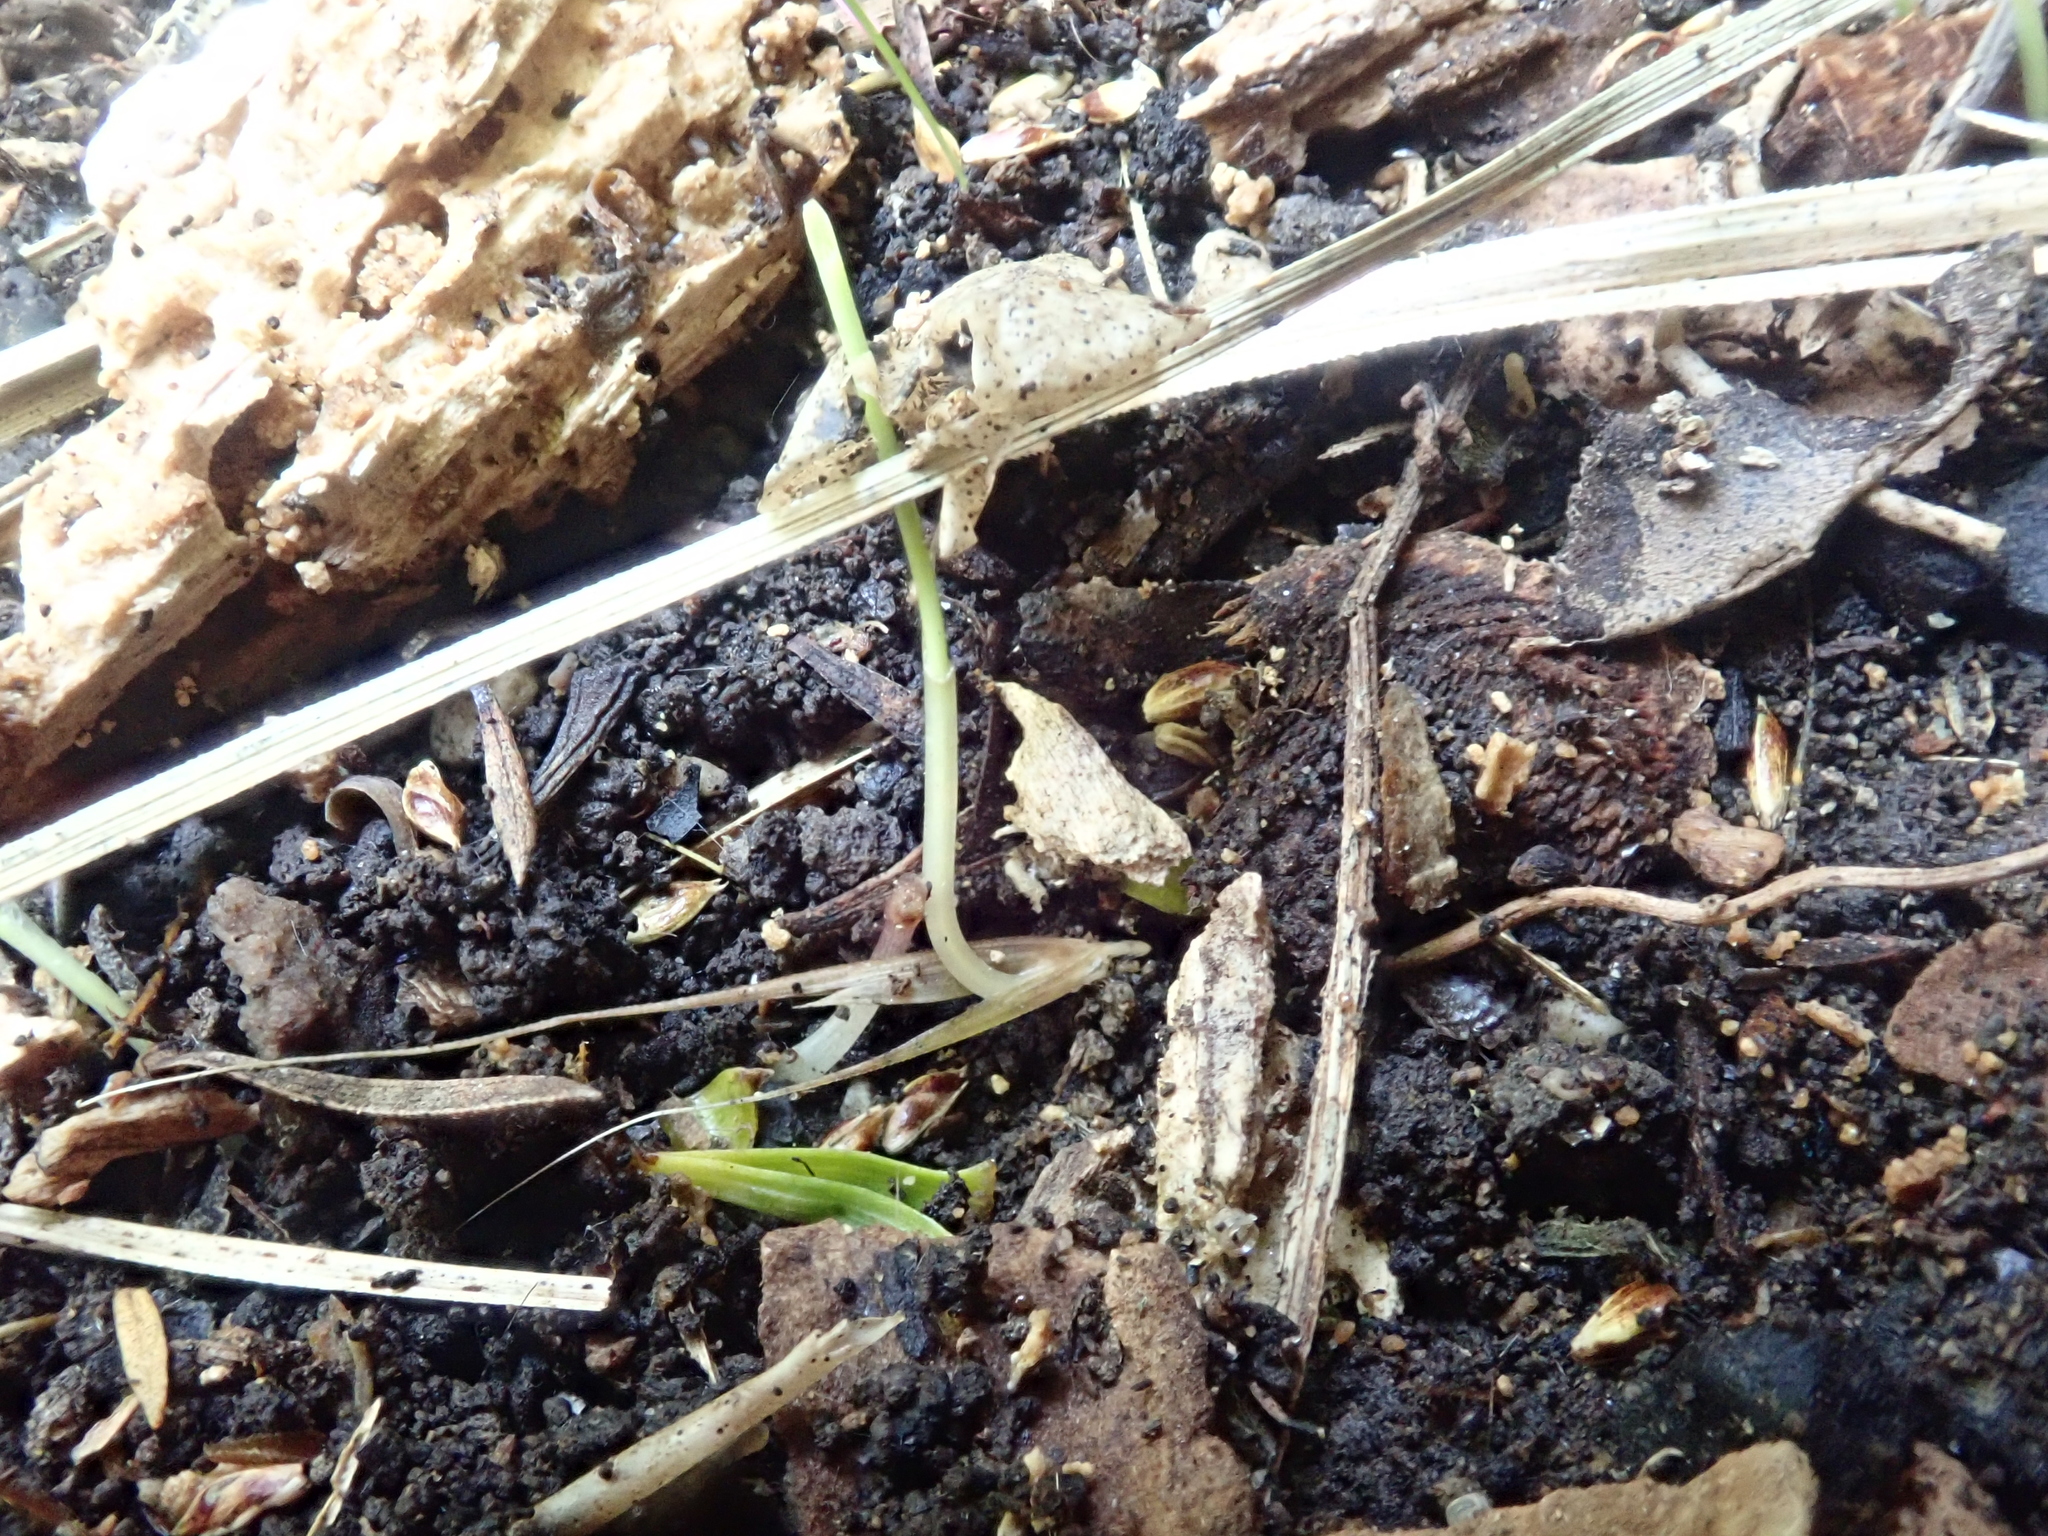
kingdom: Plantae
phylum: Tracheophyta
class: Liliopsida
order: Poales
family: Poaceae
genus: Microlaena
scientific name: Microlaena stipoides
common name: Meadow ricegrass
